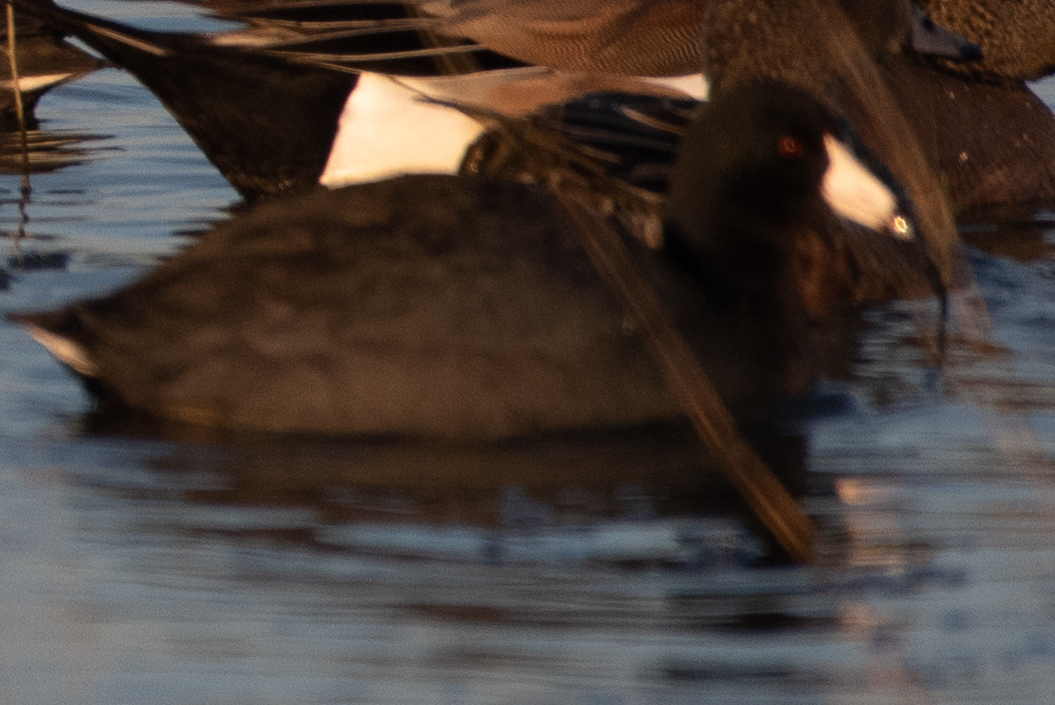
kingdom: Animalia
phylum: Chordata
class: Aves
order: Gruiformes
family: Rallidae
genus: Fulica
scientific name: Fulica americana
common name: American coot
